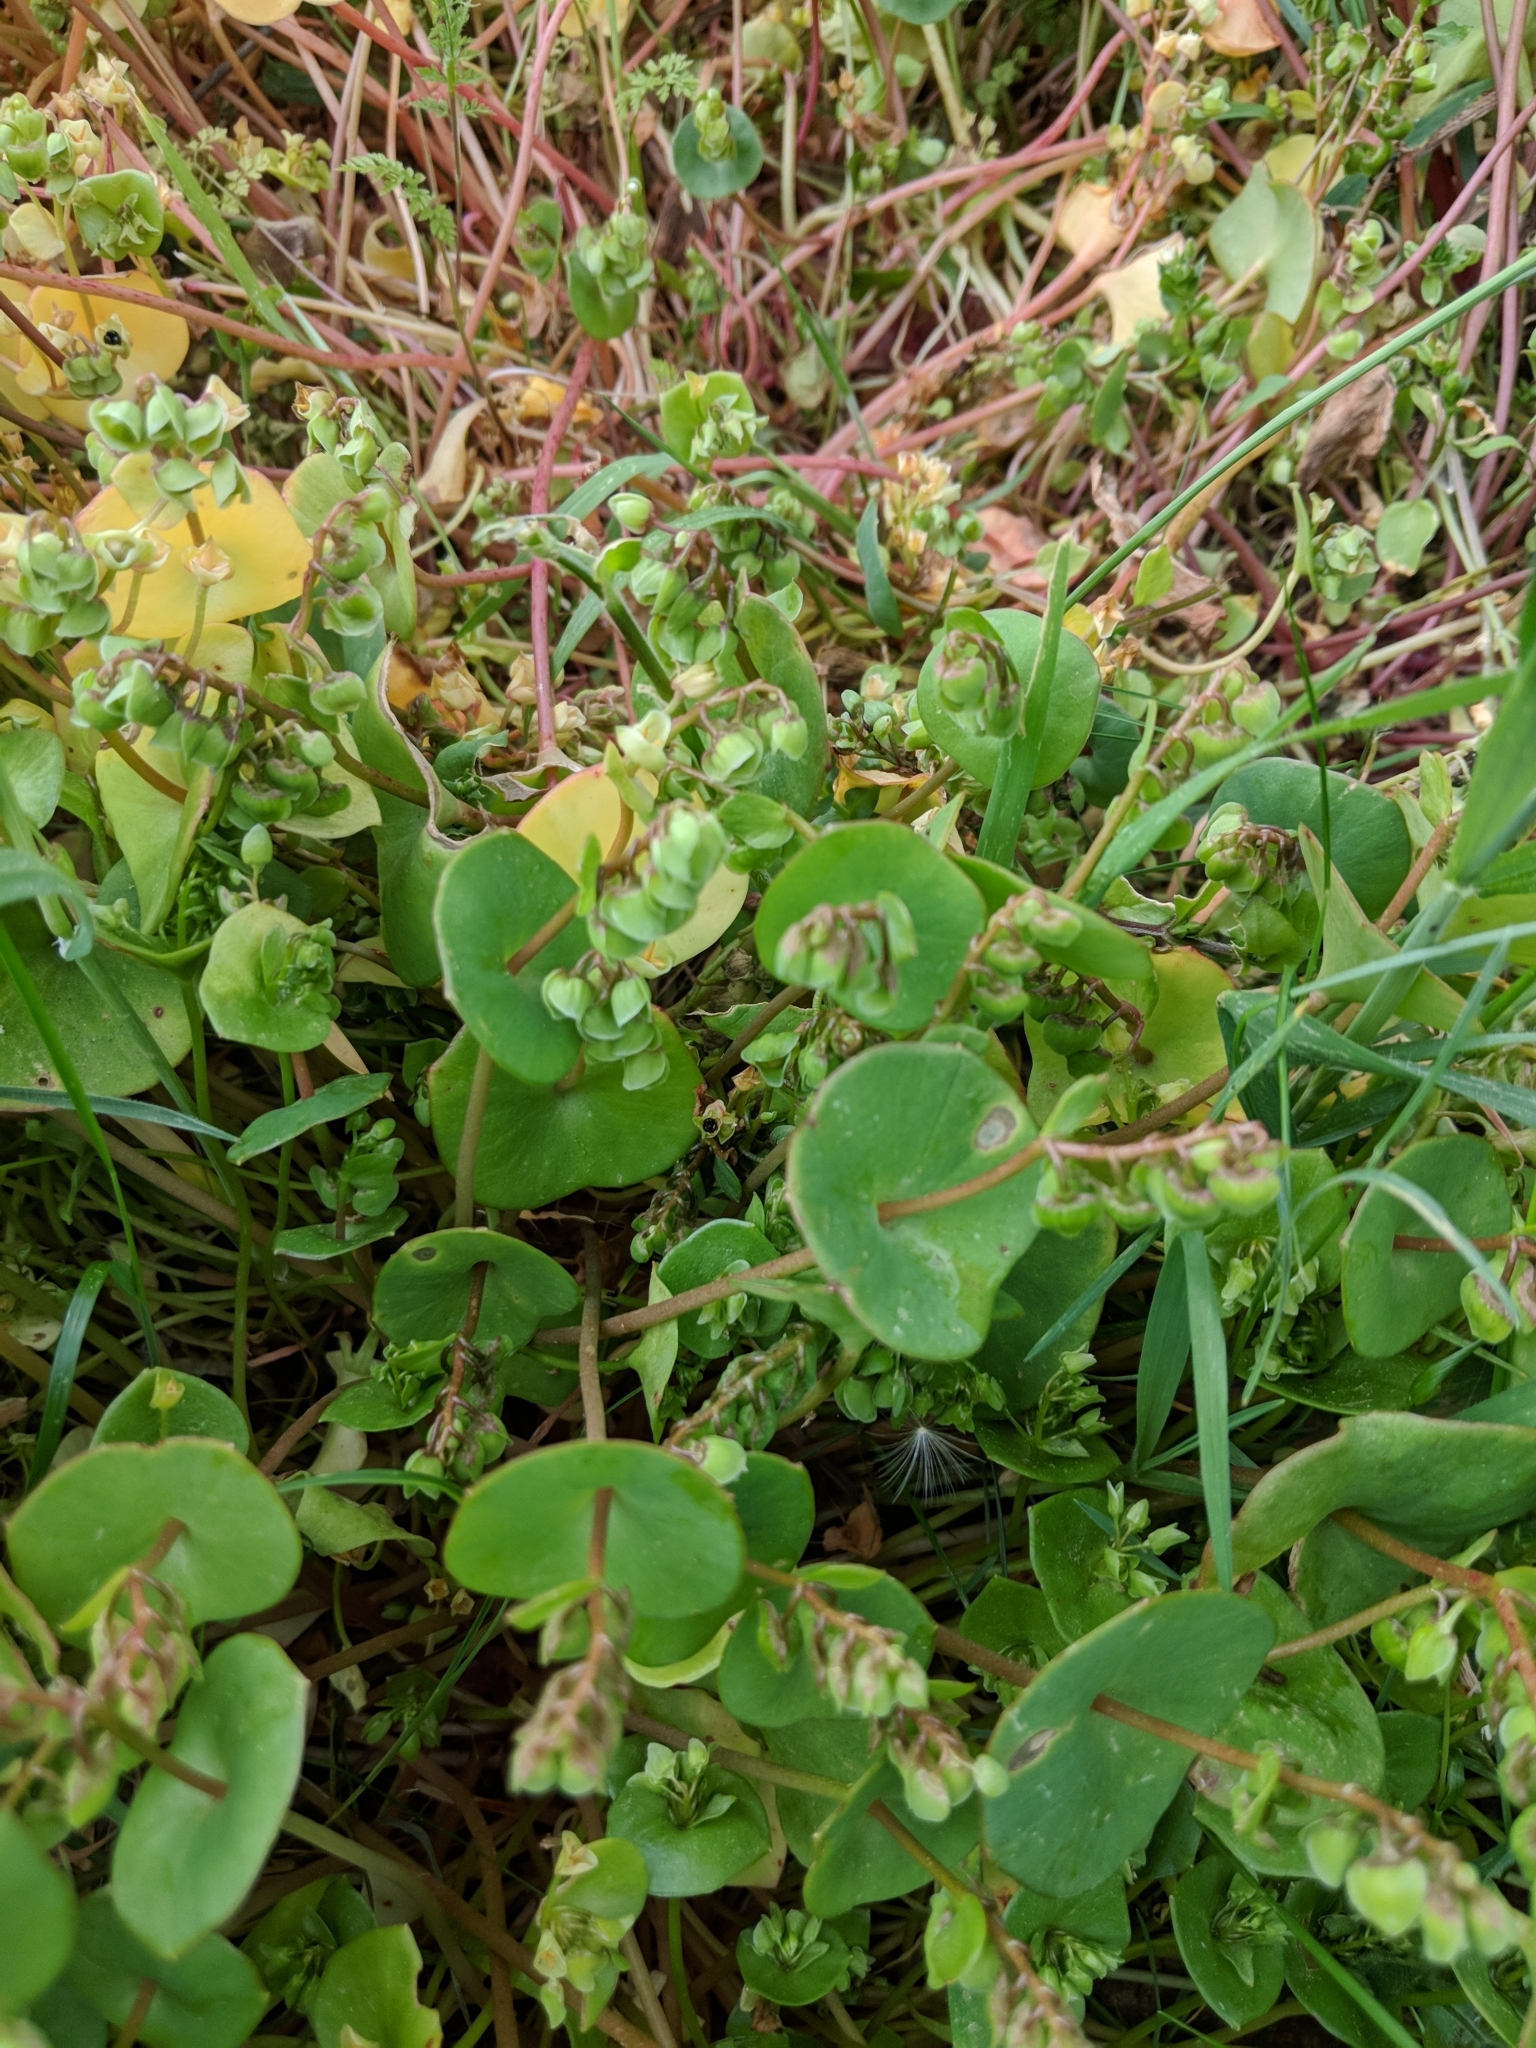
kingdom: Plantae
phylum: Tracheophyta
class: Magnoliopsida
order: Caryophyllales
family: Montiaceae
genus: Claytonia
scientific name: Claytonia perfoliata
